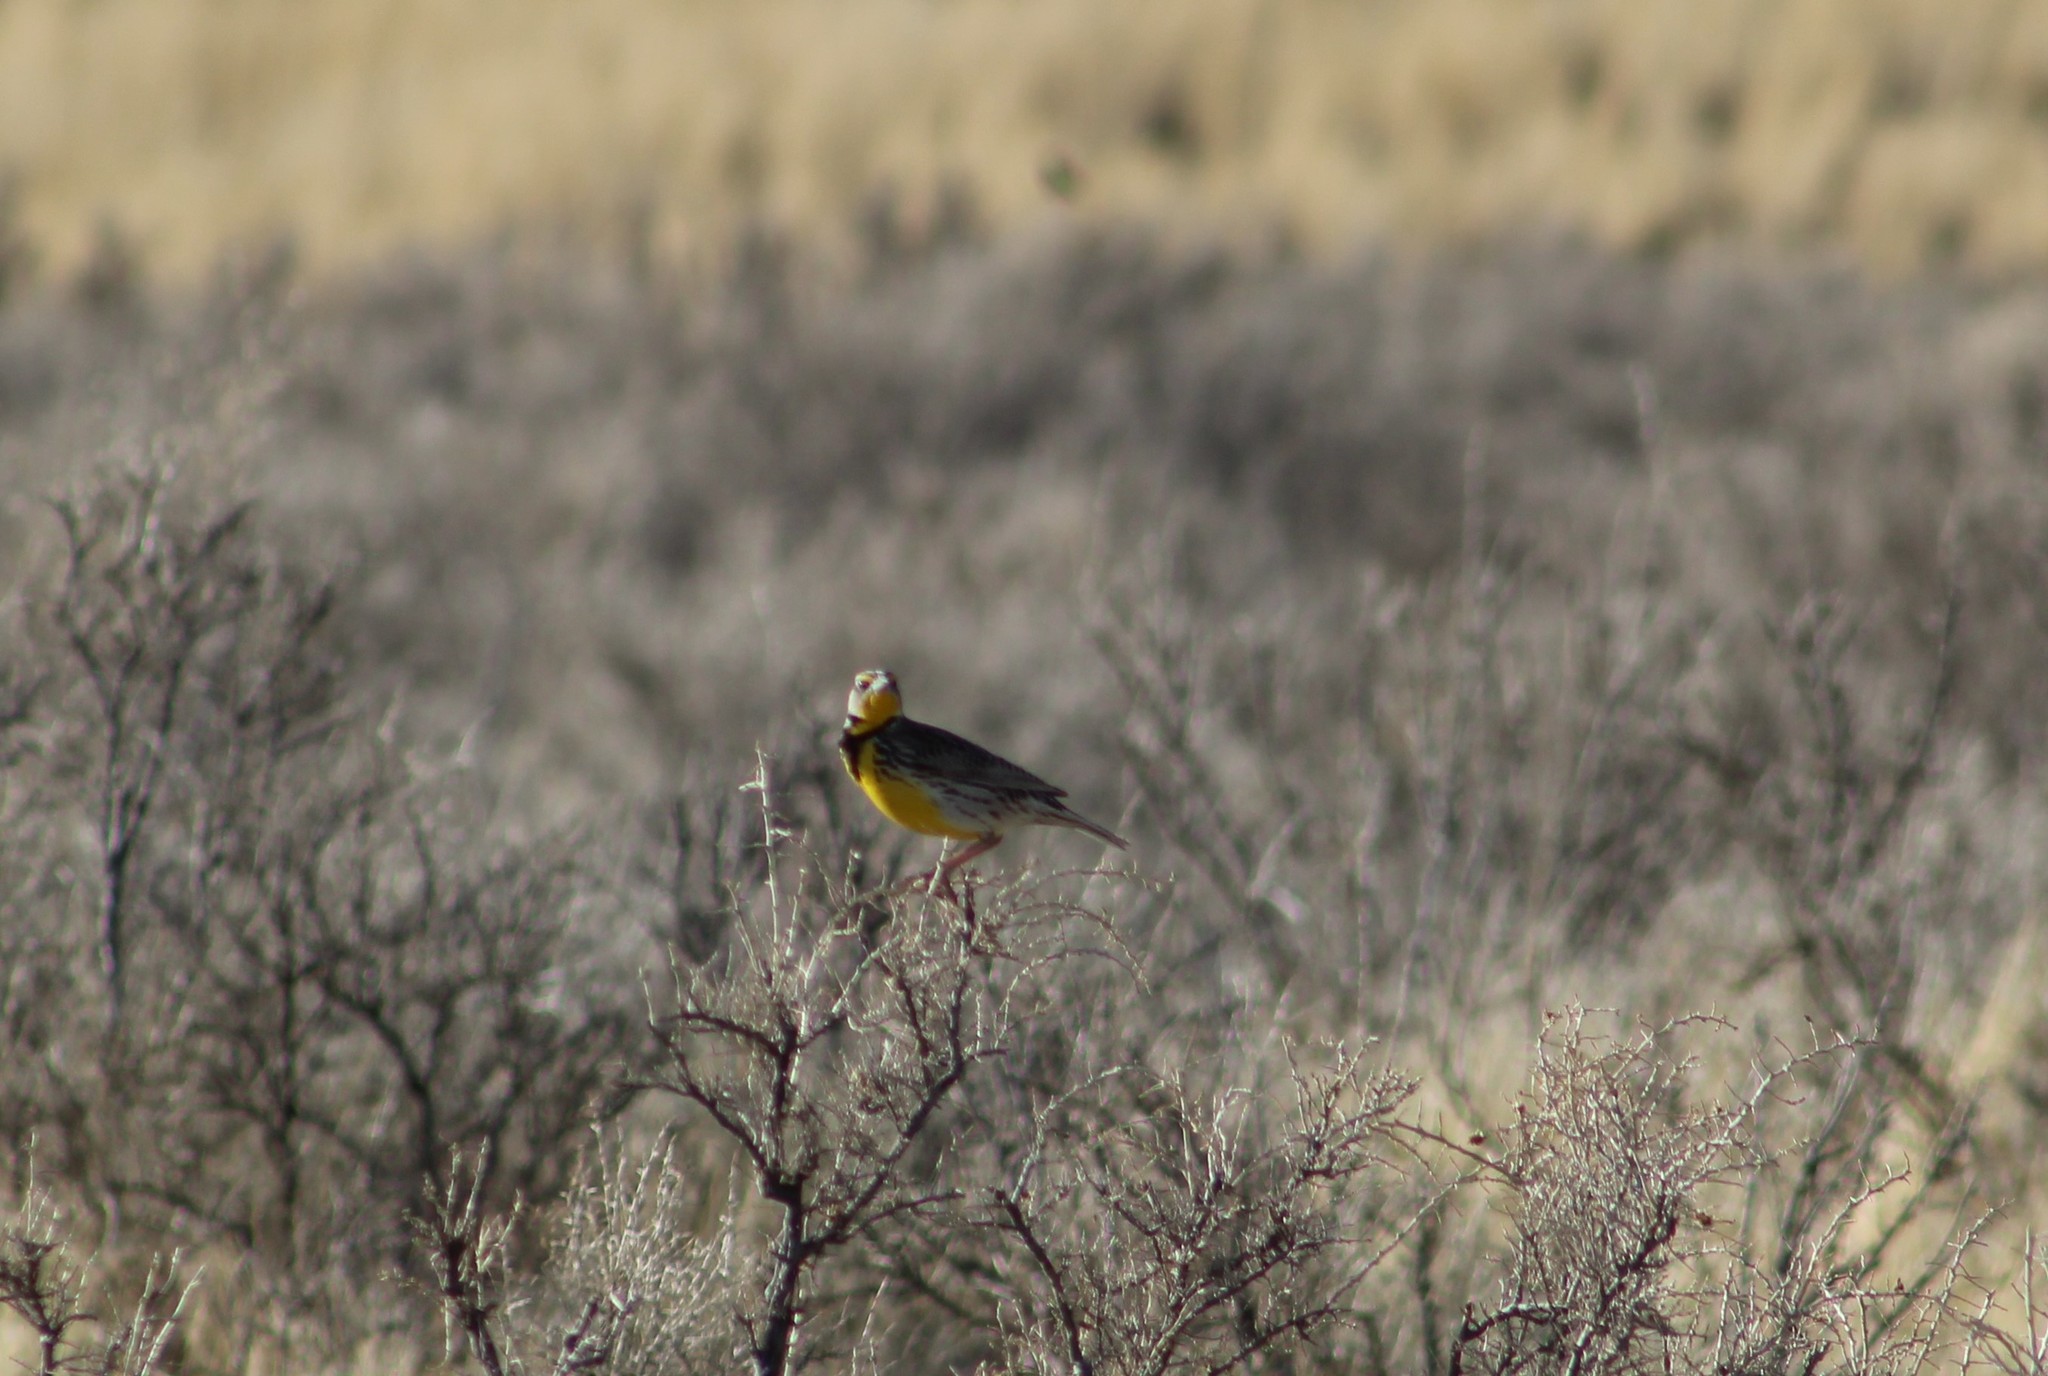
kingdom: Animalia
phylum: Chordata
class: Aves
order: Passeriformes
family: Icteridae
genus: Sturnella
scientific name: Sturnella neglecta
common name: Western meadowlark
